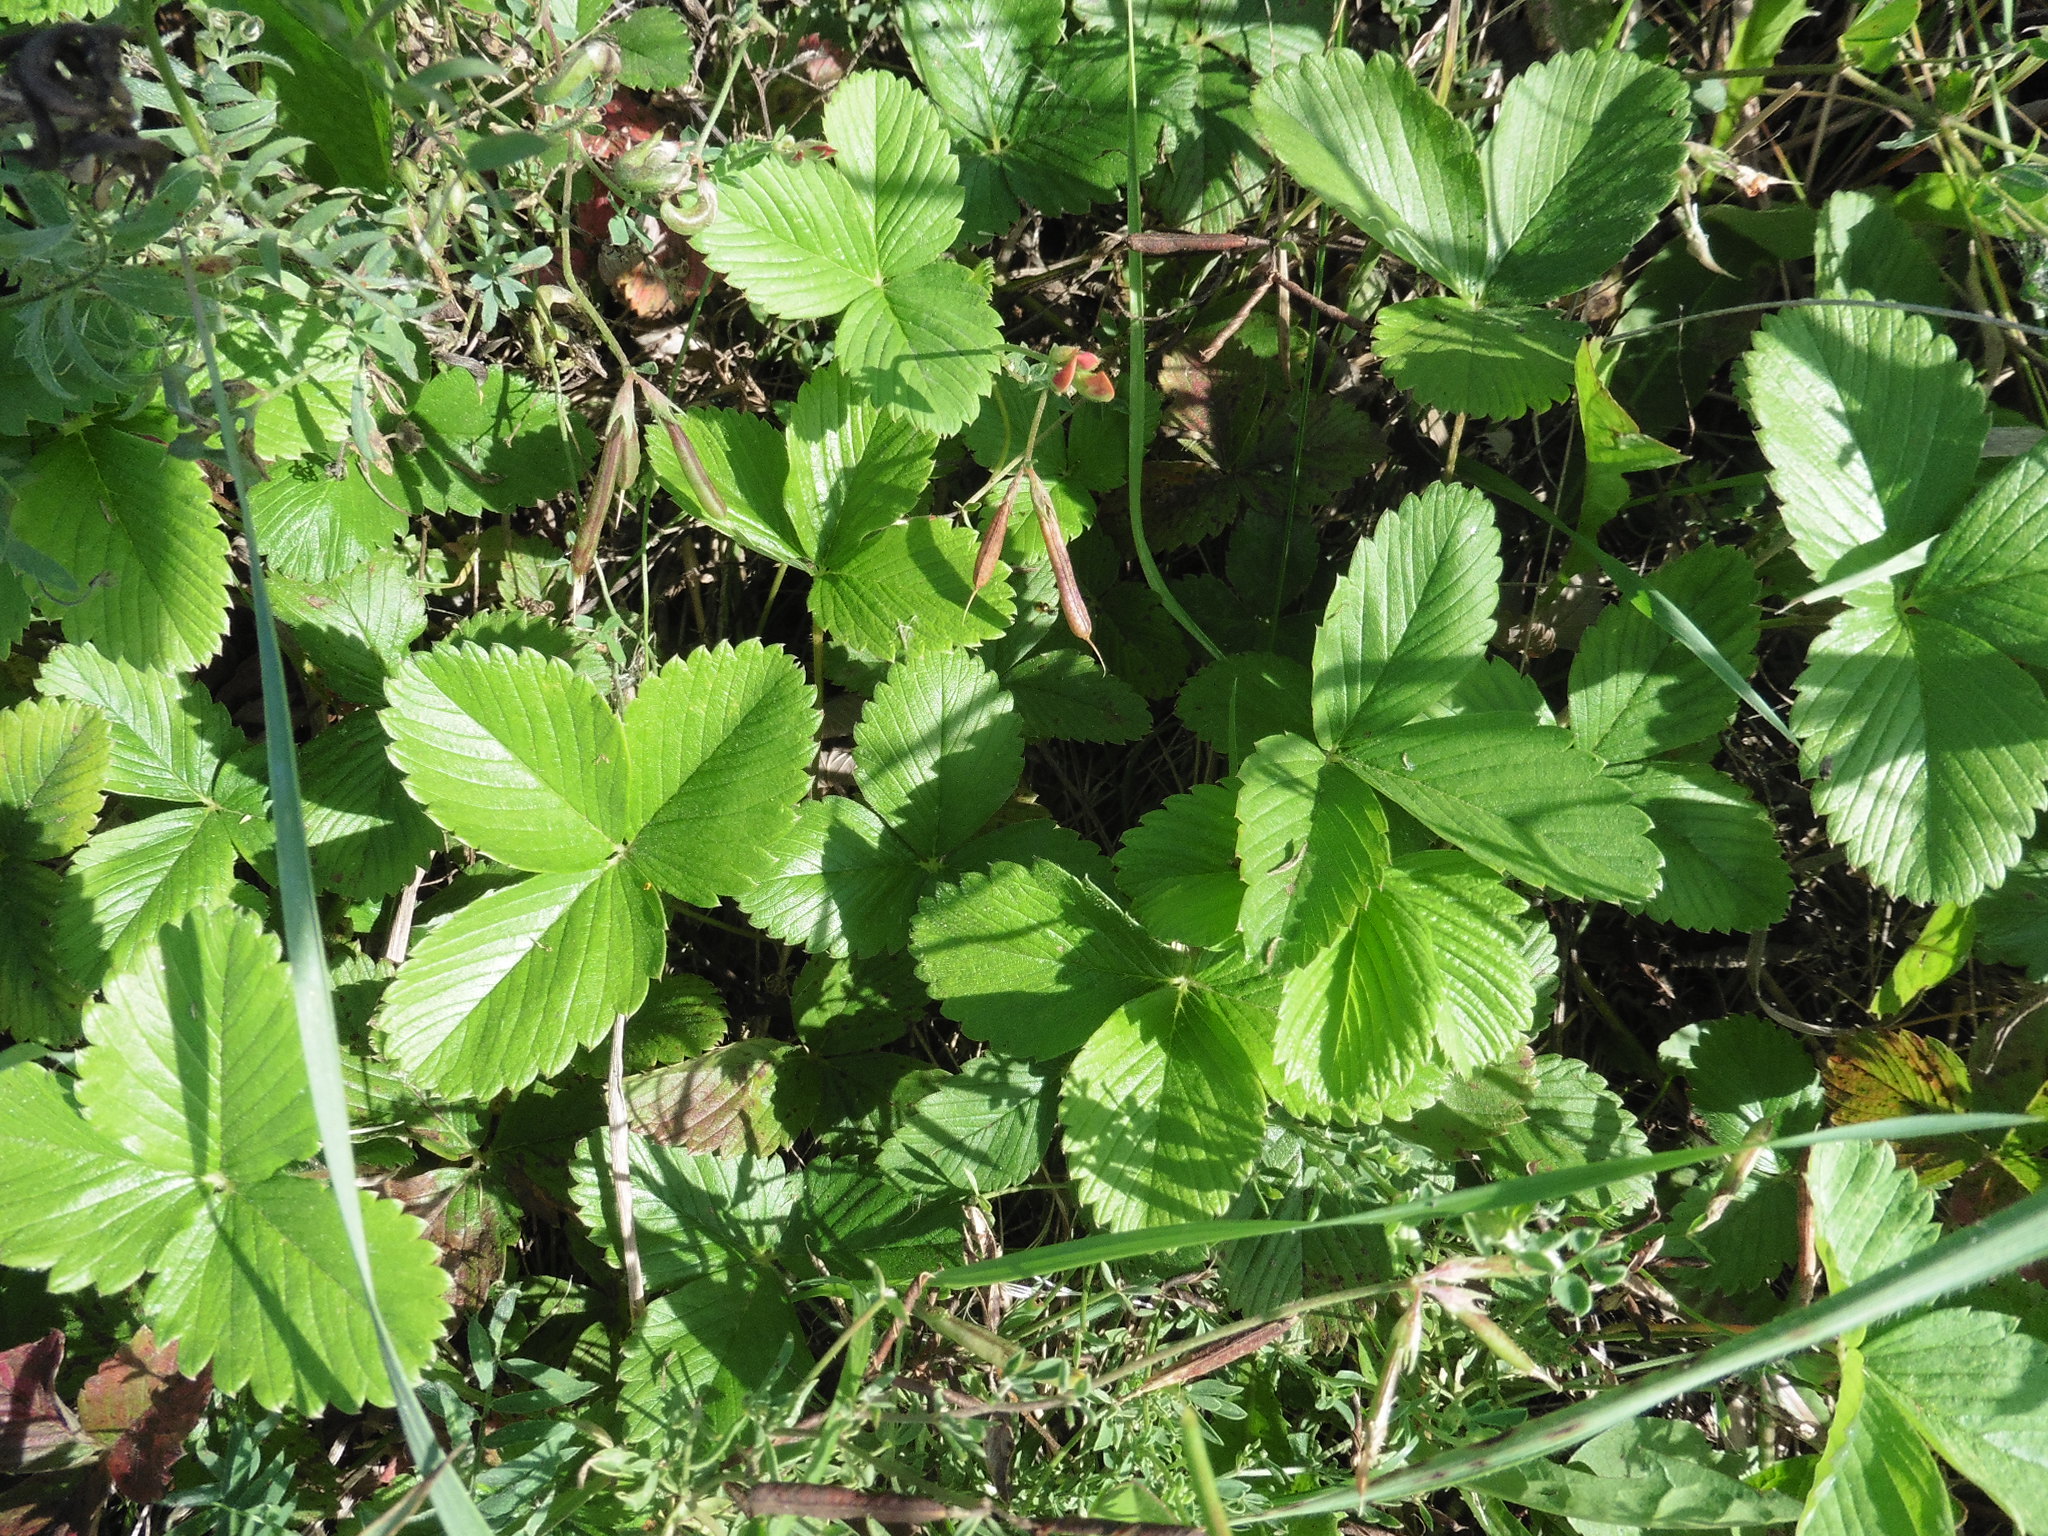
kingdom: Plantae
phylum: Tracheophyta
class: Magnoliopsida
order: Rosales
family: Rosaceae
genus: Fragaria
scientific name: Fragaria viridis
